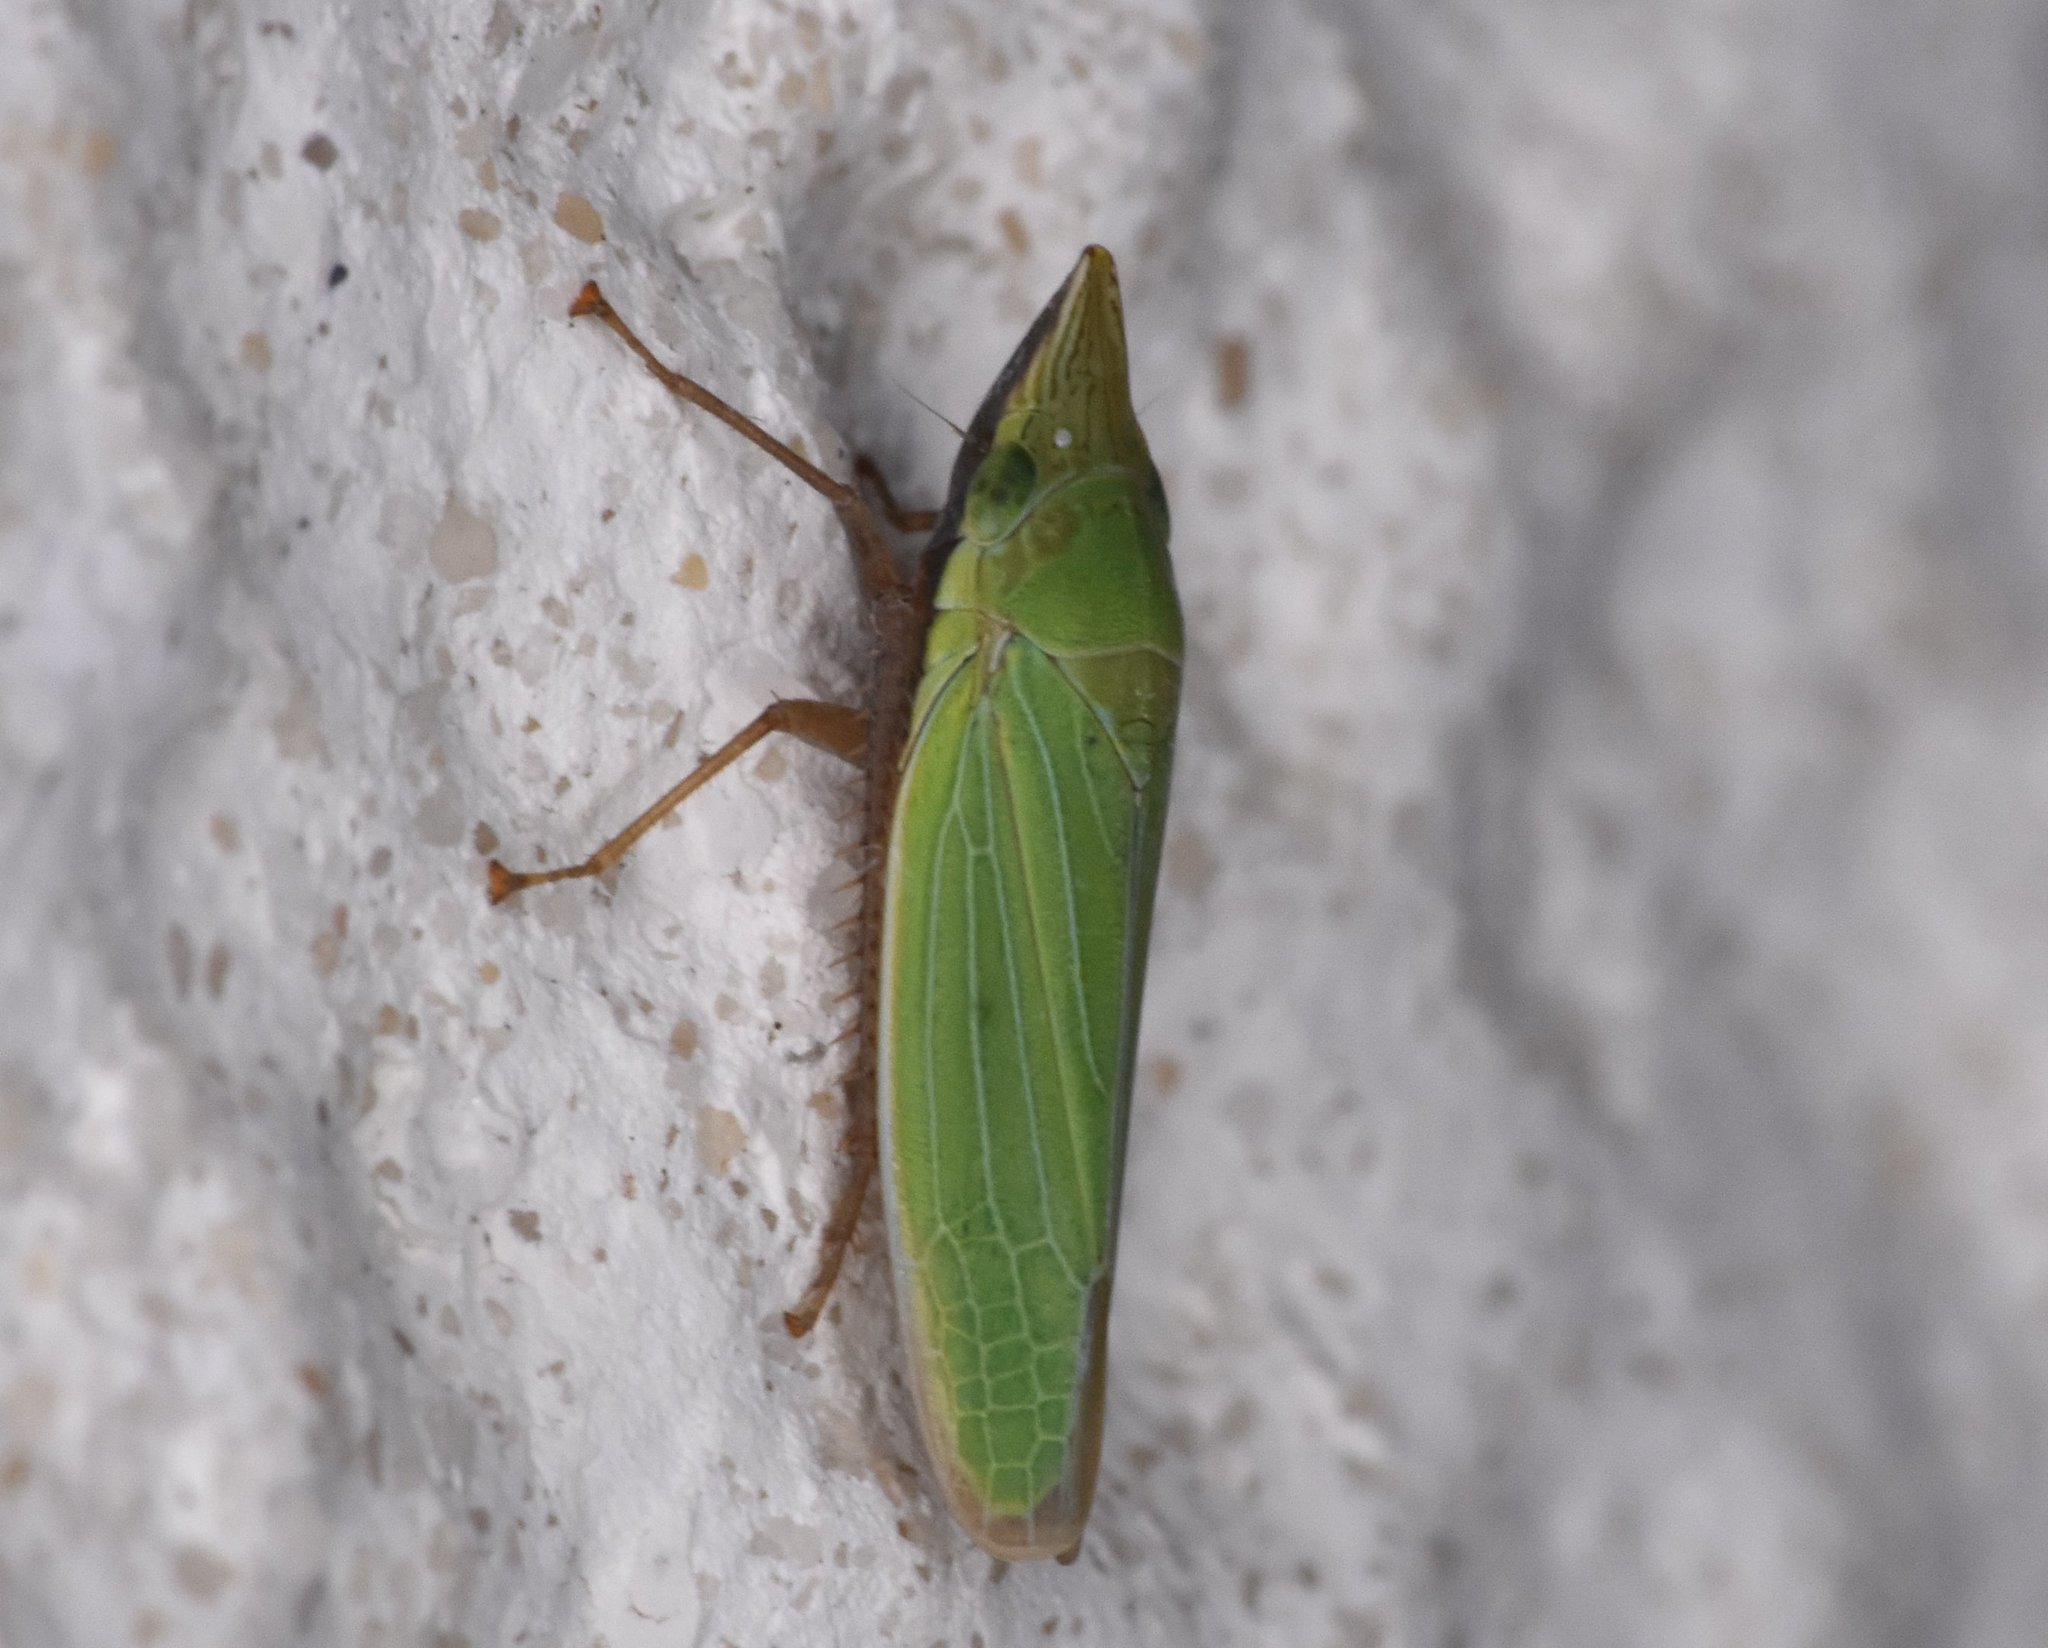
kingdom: Animalia
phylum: Arthropoda
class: Insecta
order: Hemiptera
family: Cicadellidae
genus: Draeculacephala
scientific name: Draeculacephala portola
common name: Leafhopper
